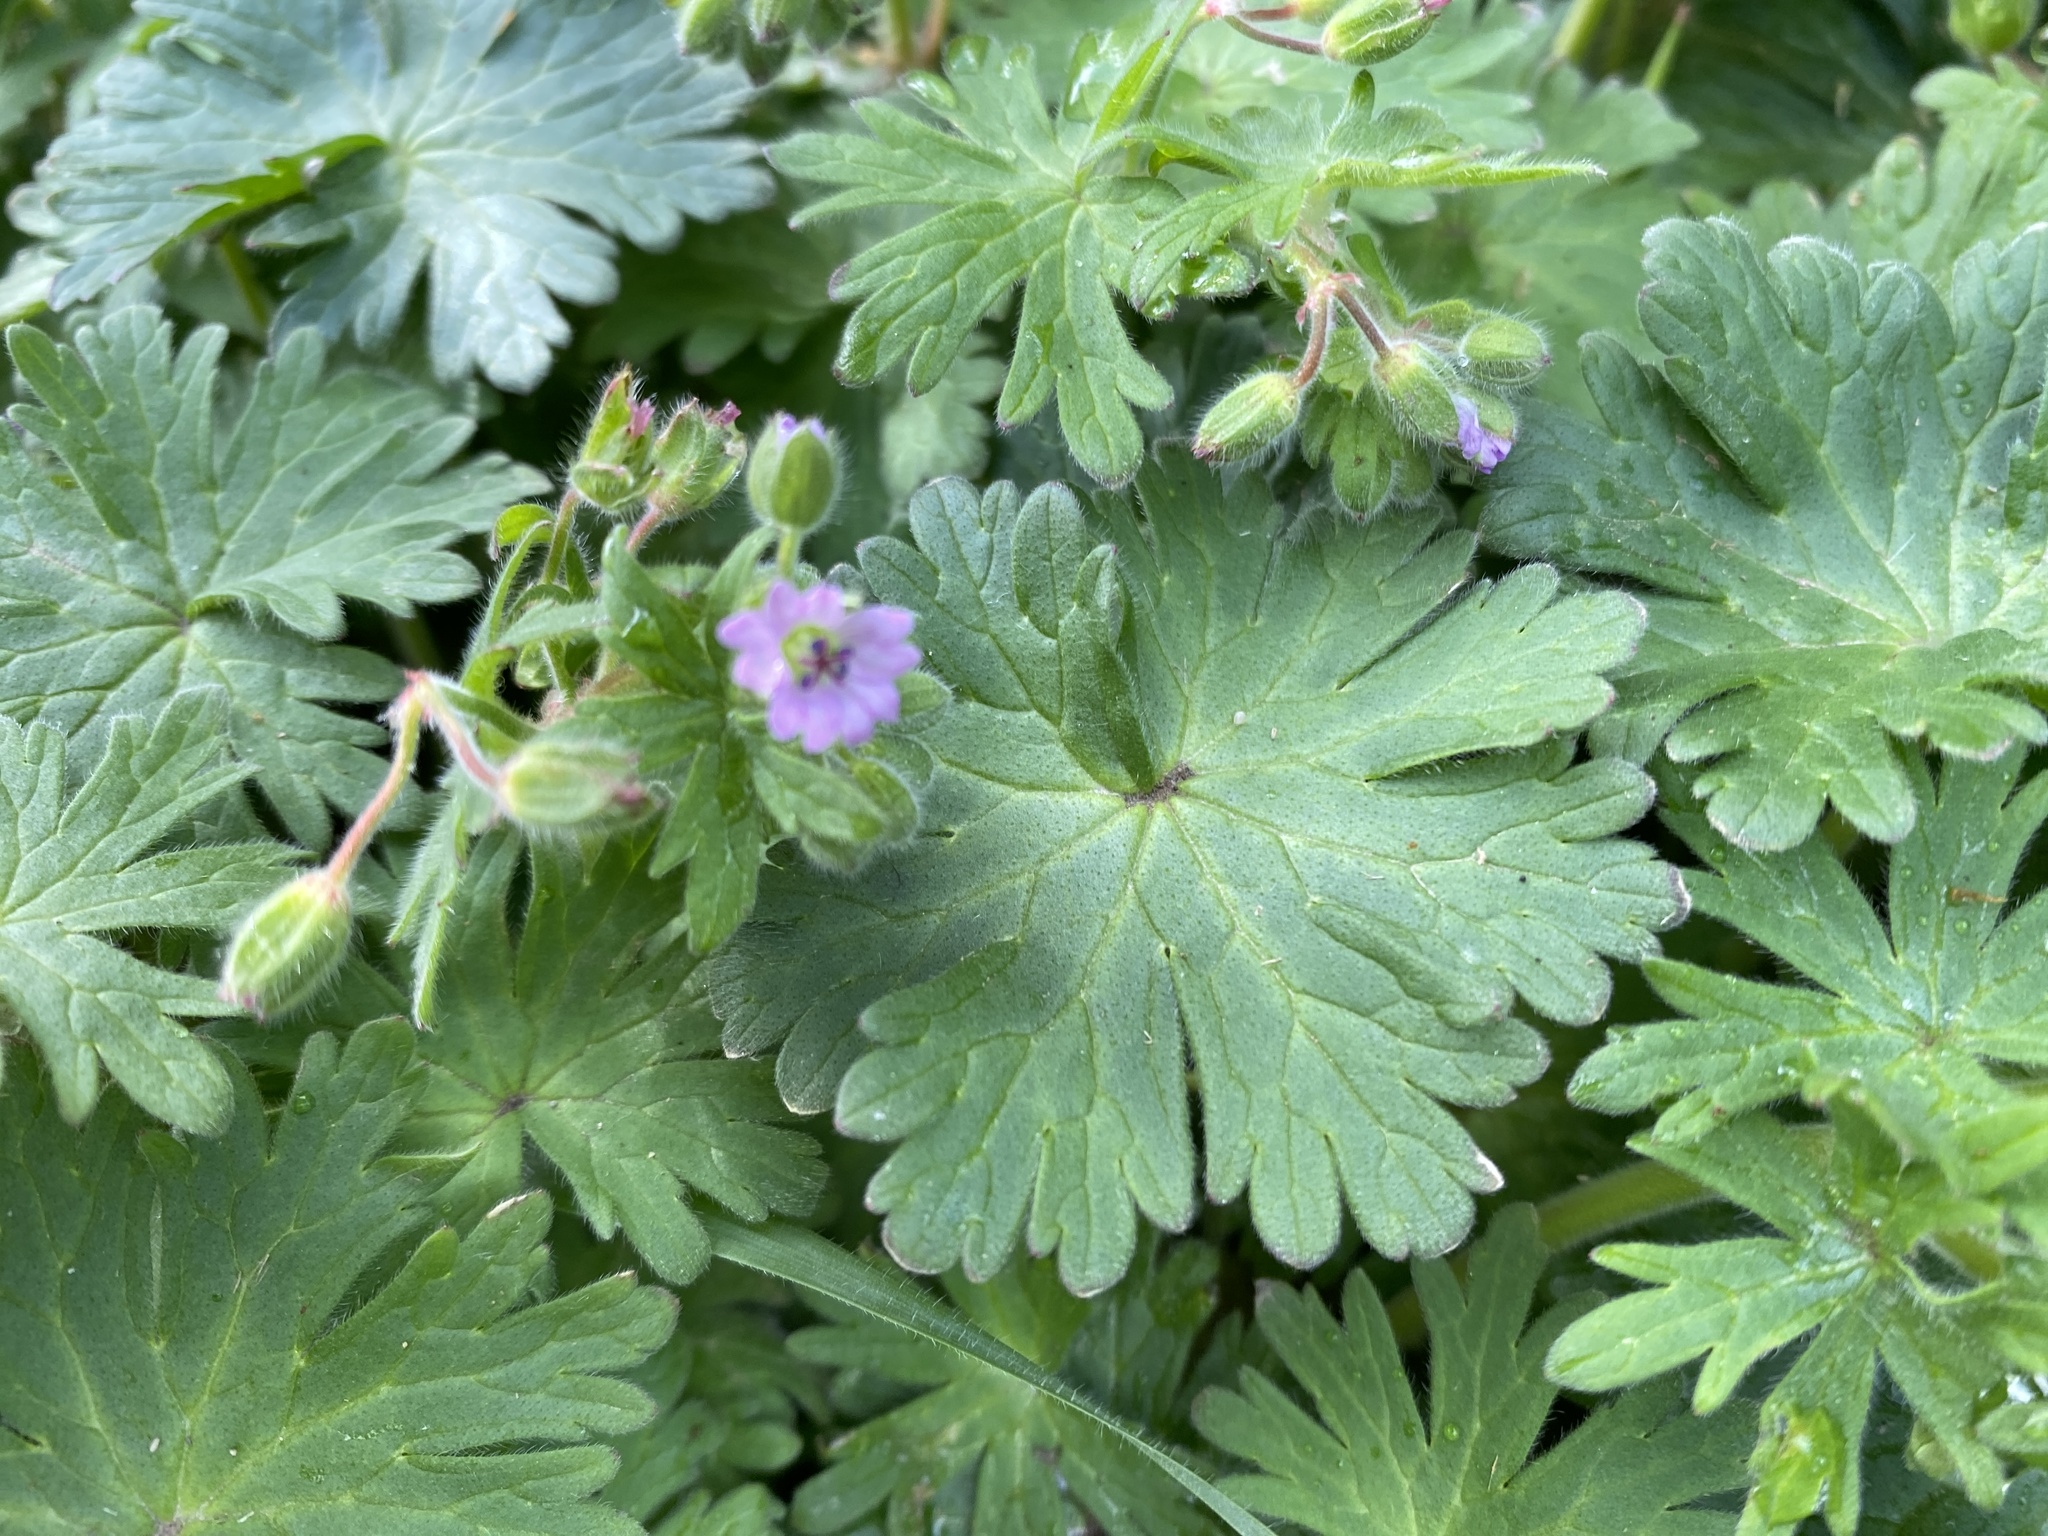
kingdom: Plantae
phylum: Tracheophyta
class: Magnoliopsida
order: Geraniales
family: Geraniaceae
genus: Geranium
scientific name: Geranium pusillum
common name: Small geranium
